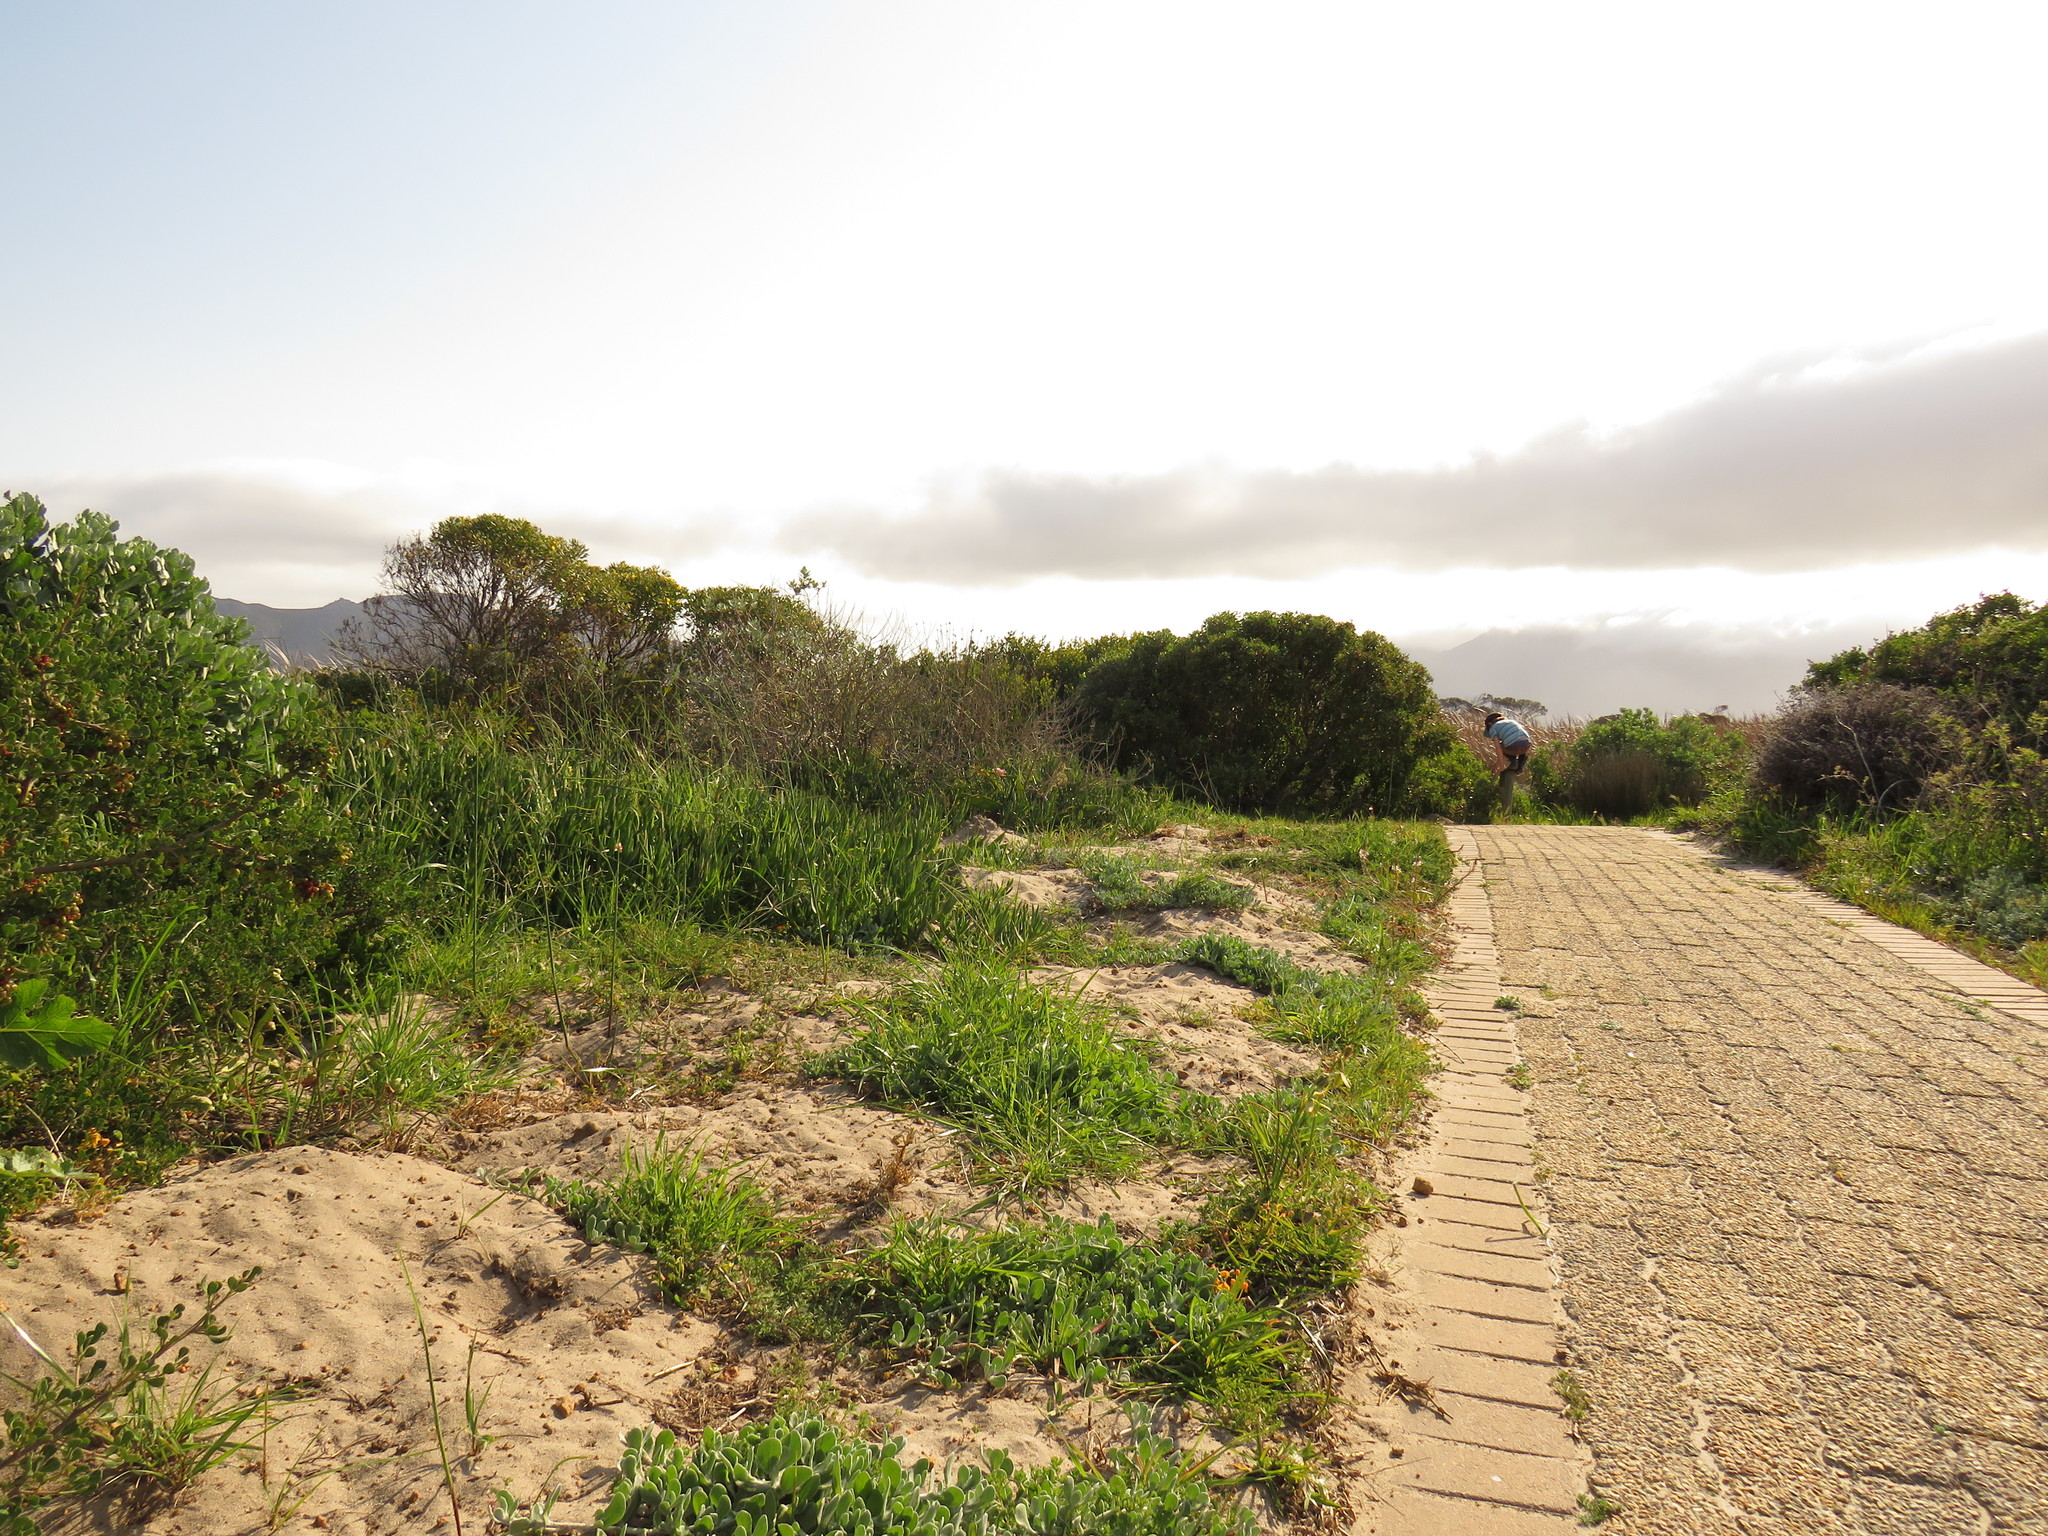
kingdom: Plantae
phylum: Tracheophyta
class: Magnoliopsida
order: Asterales
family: Asteraceae
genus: Helichrysum
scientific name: Helichrysum crispum
